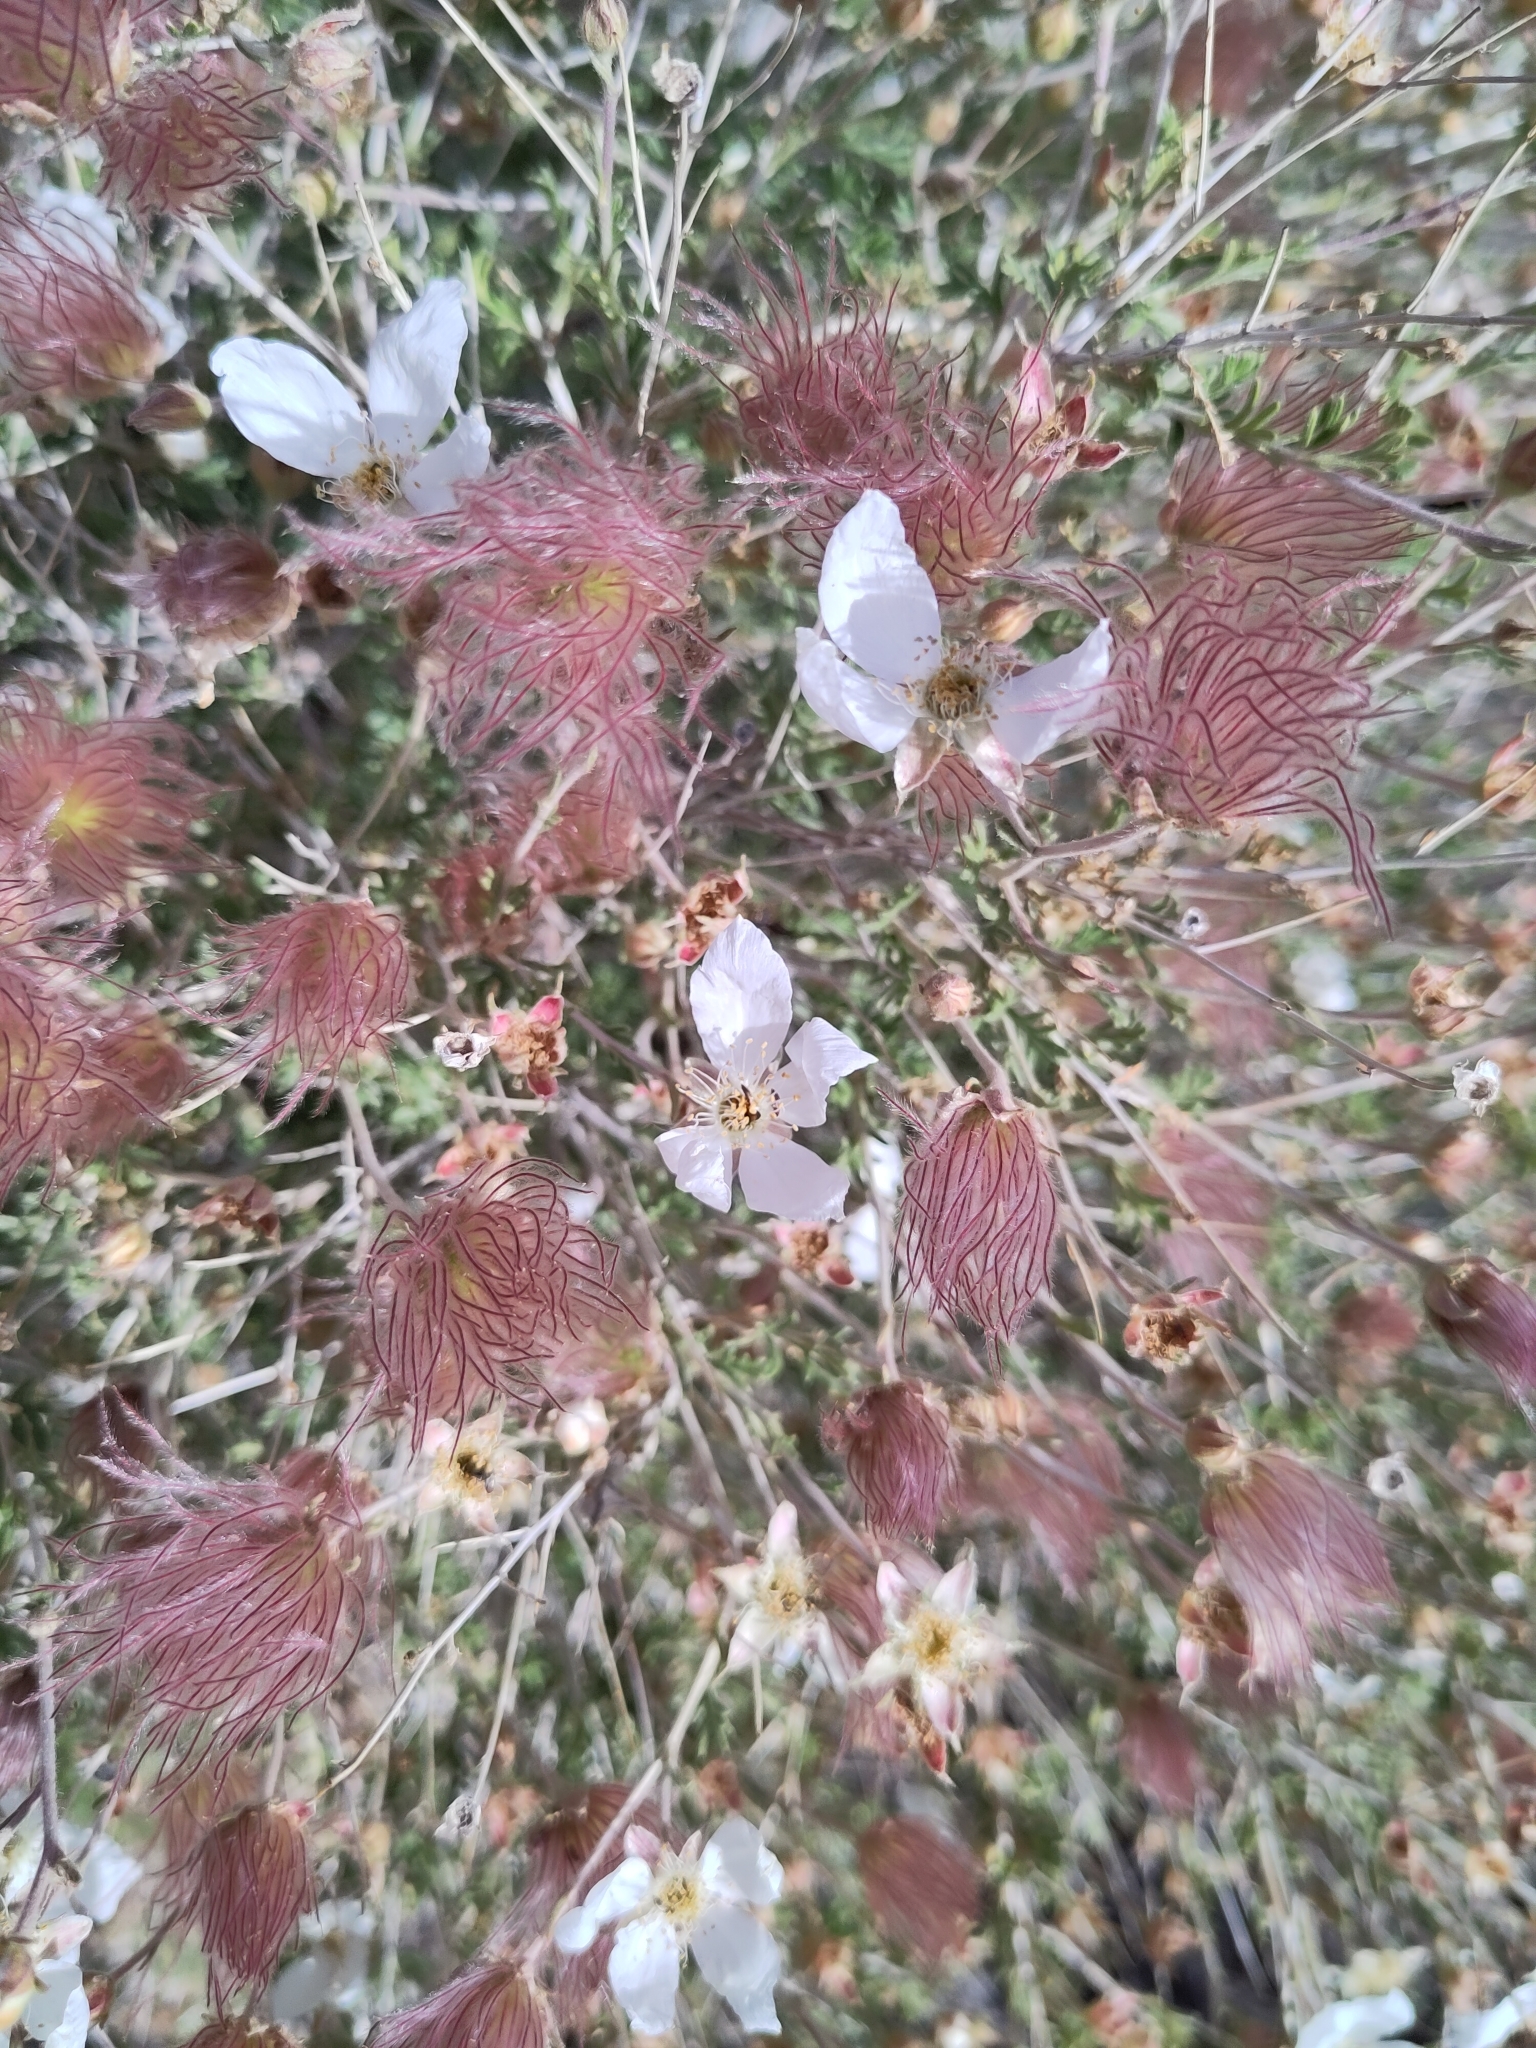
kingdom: Plantae
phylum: Tracheophyta
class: Magnoliopsida
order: Rosales
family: Rosaceae
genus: Fallugia
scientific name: Fallugia paradoxa
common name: Apache-plume
